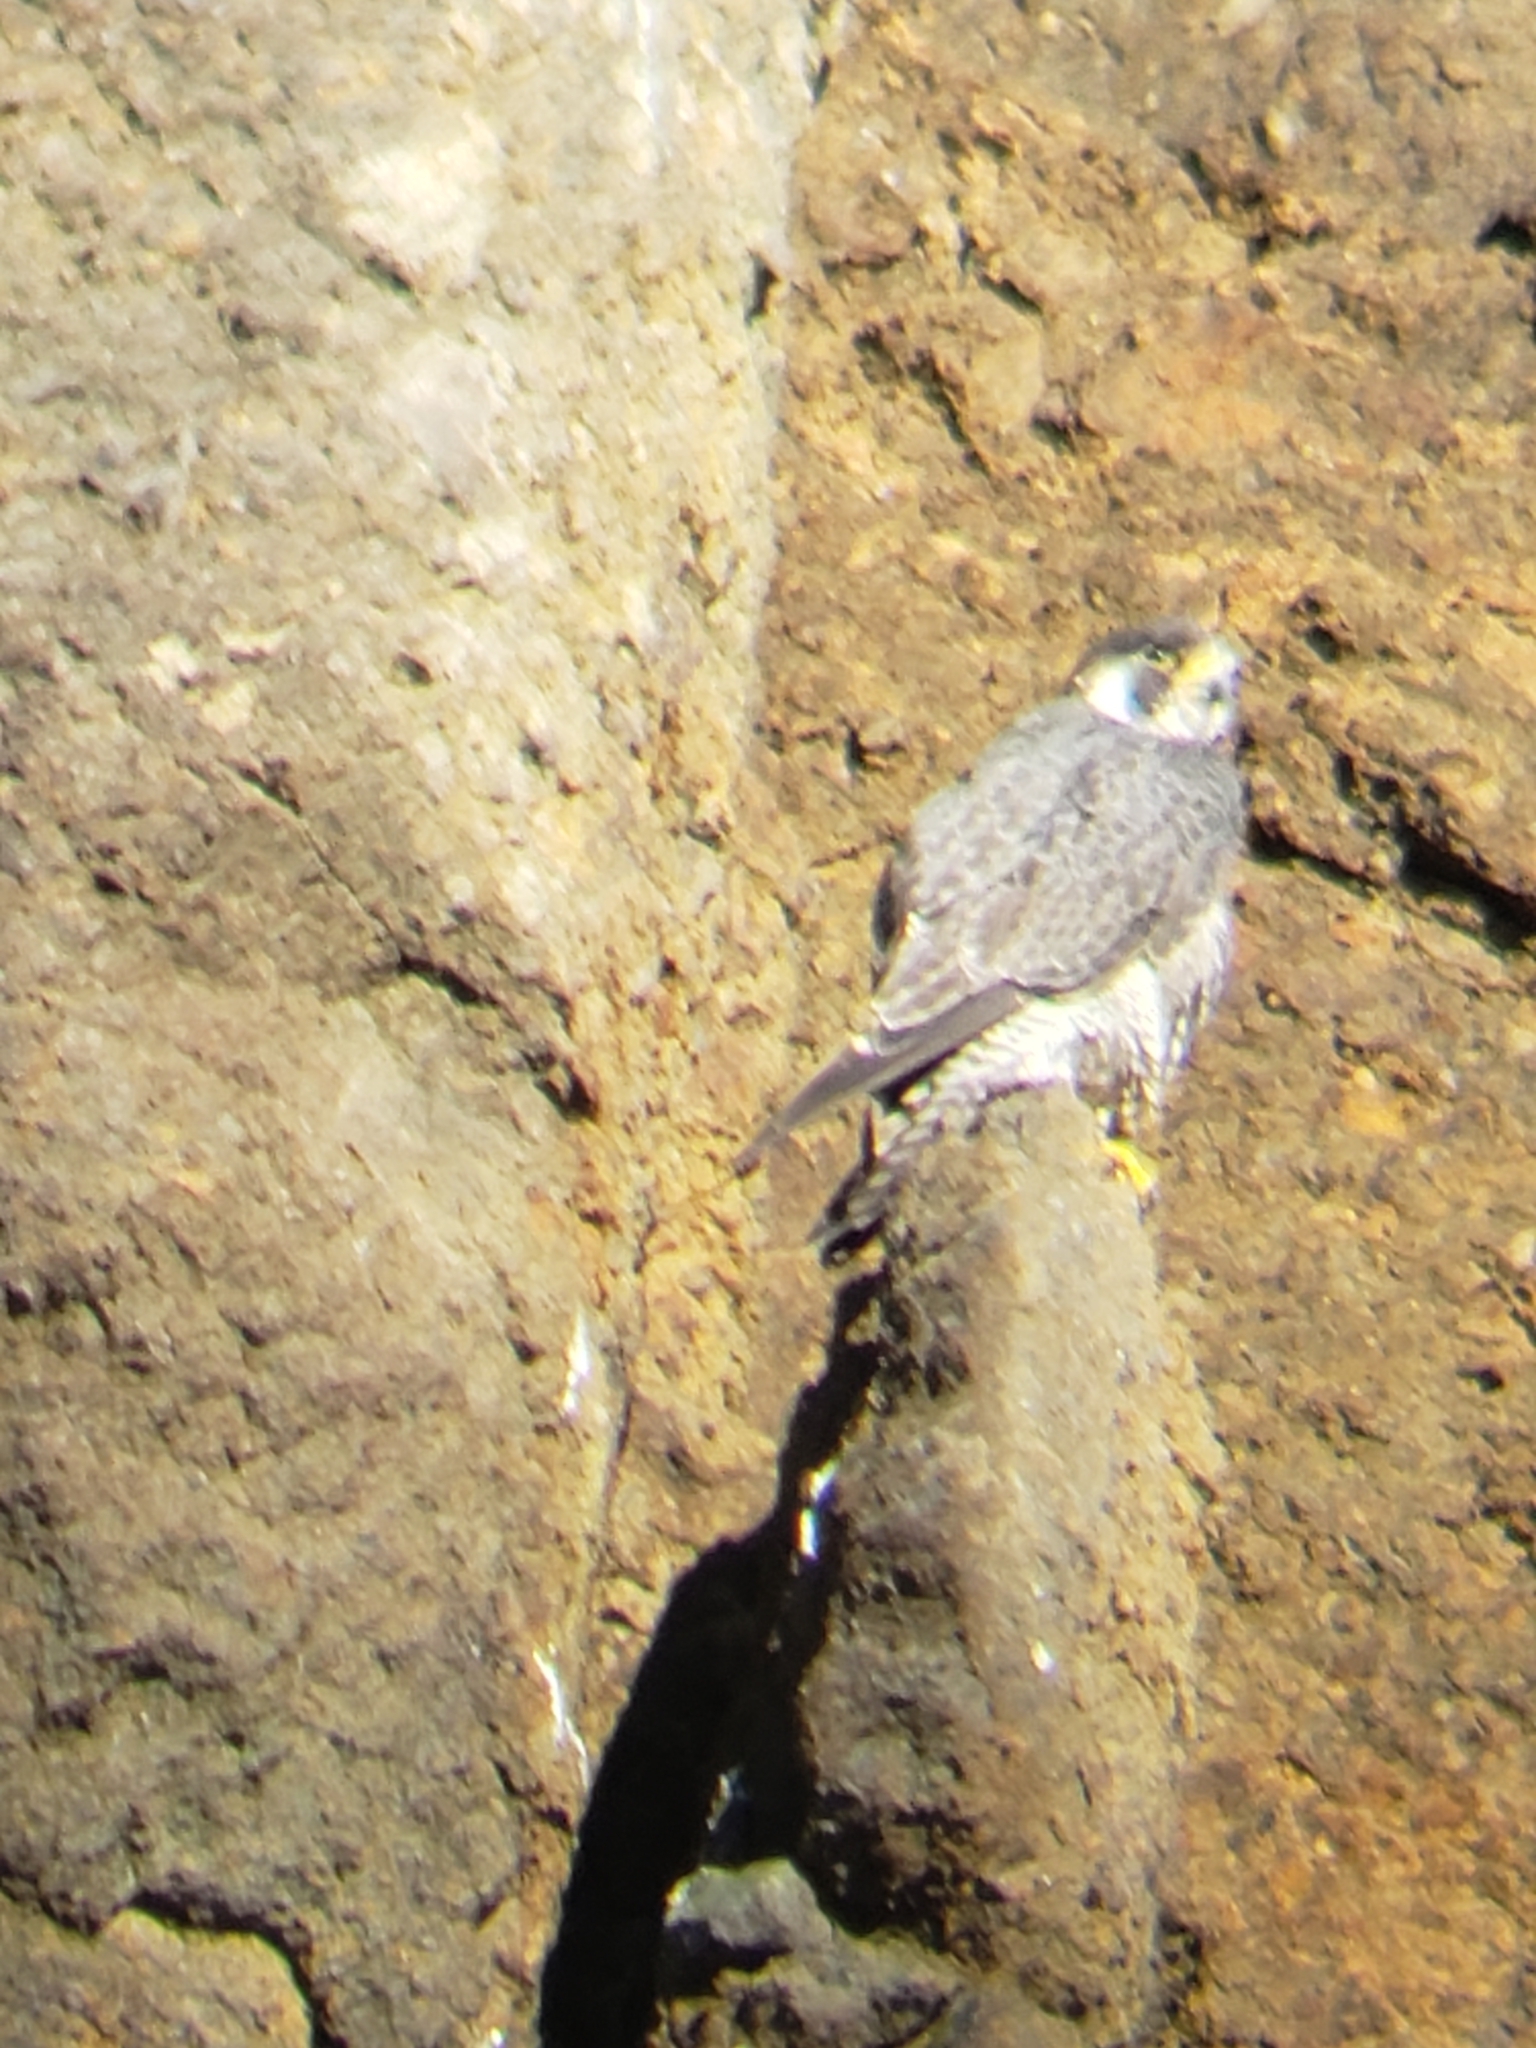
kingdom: Animalia
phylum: Chordata
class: Aves
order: Falconiformes
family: Falconidae
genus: Falco
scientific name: Falco peregrinus
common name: Peregrine falcon
